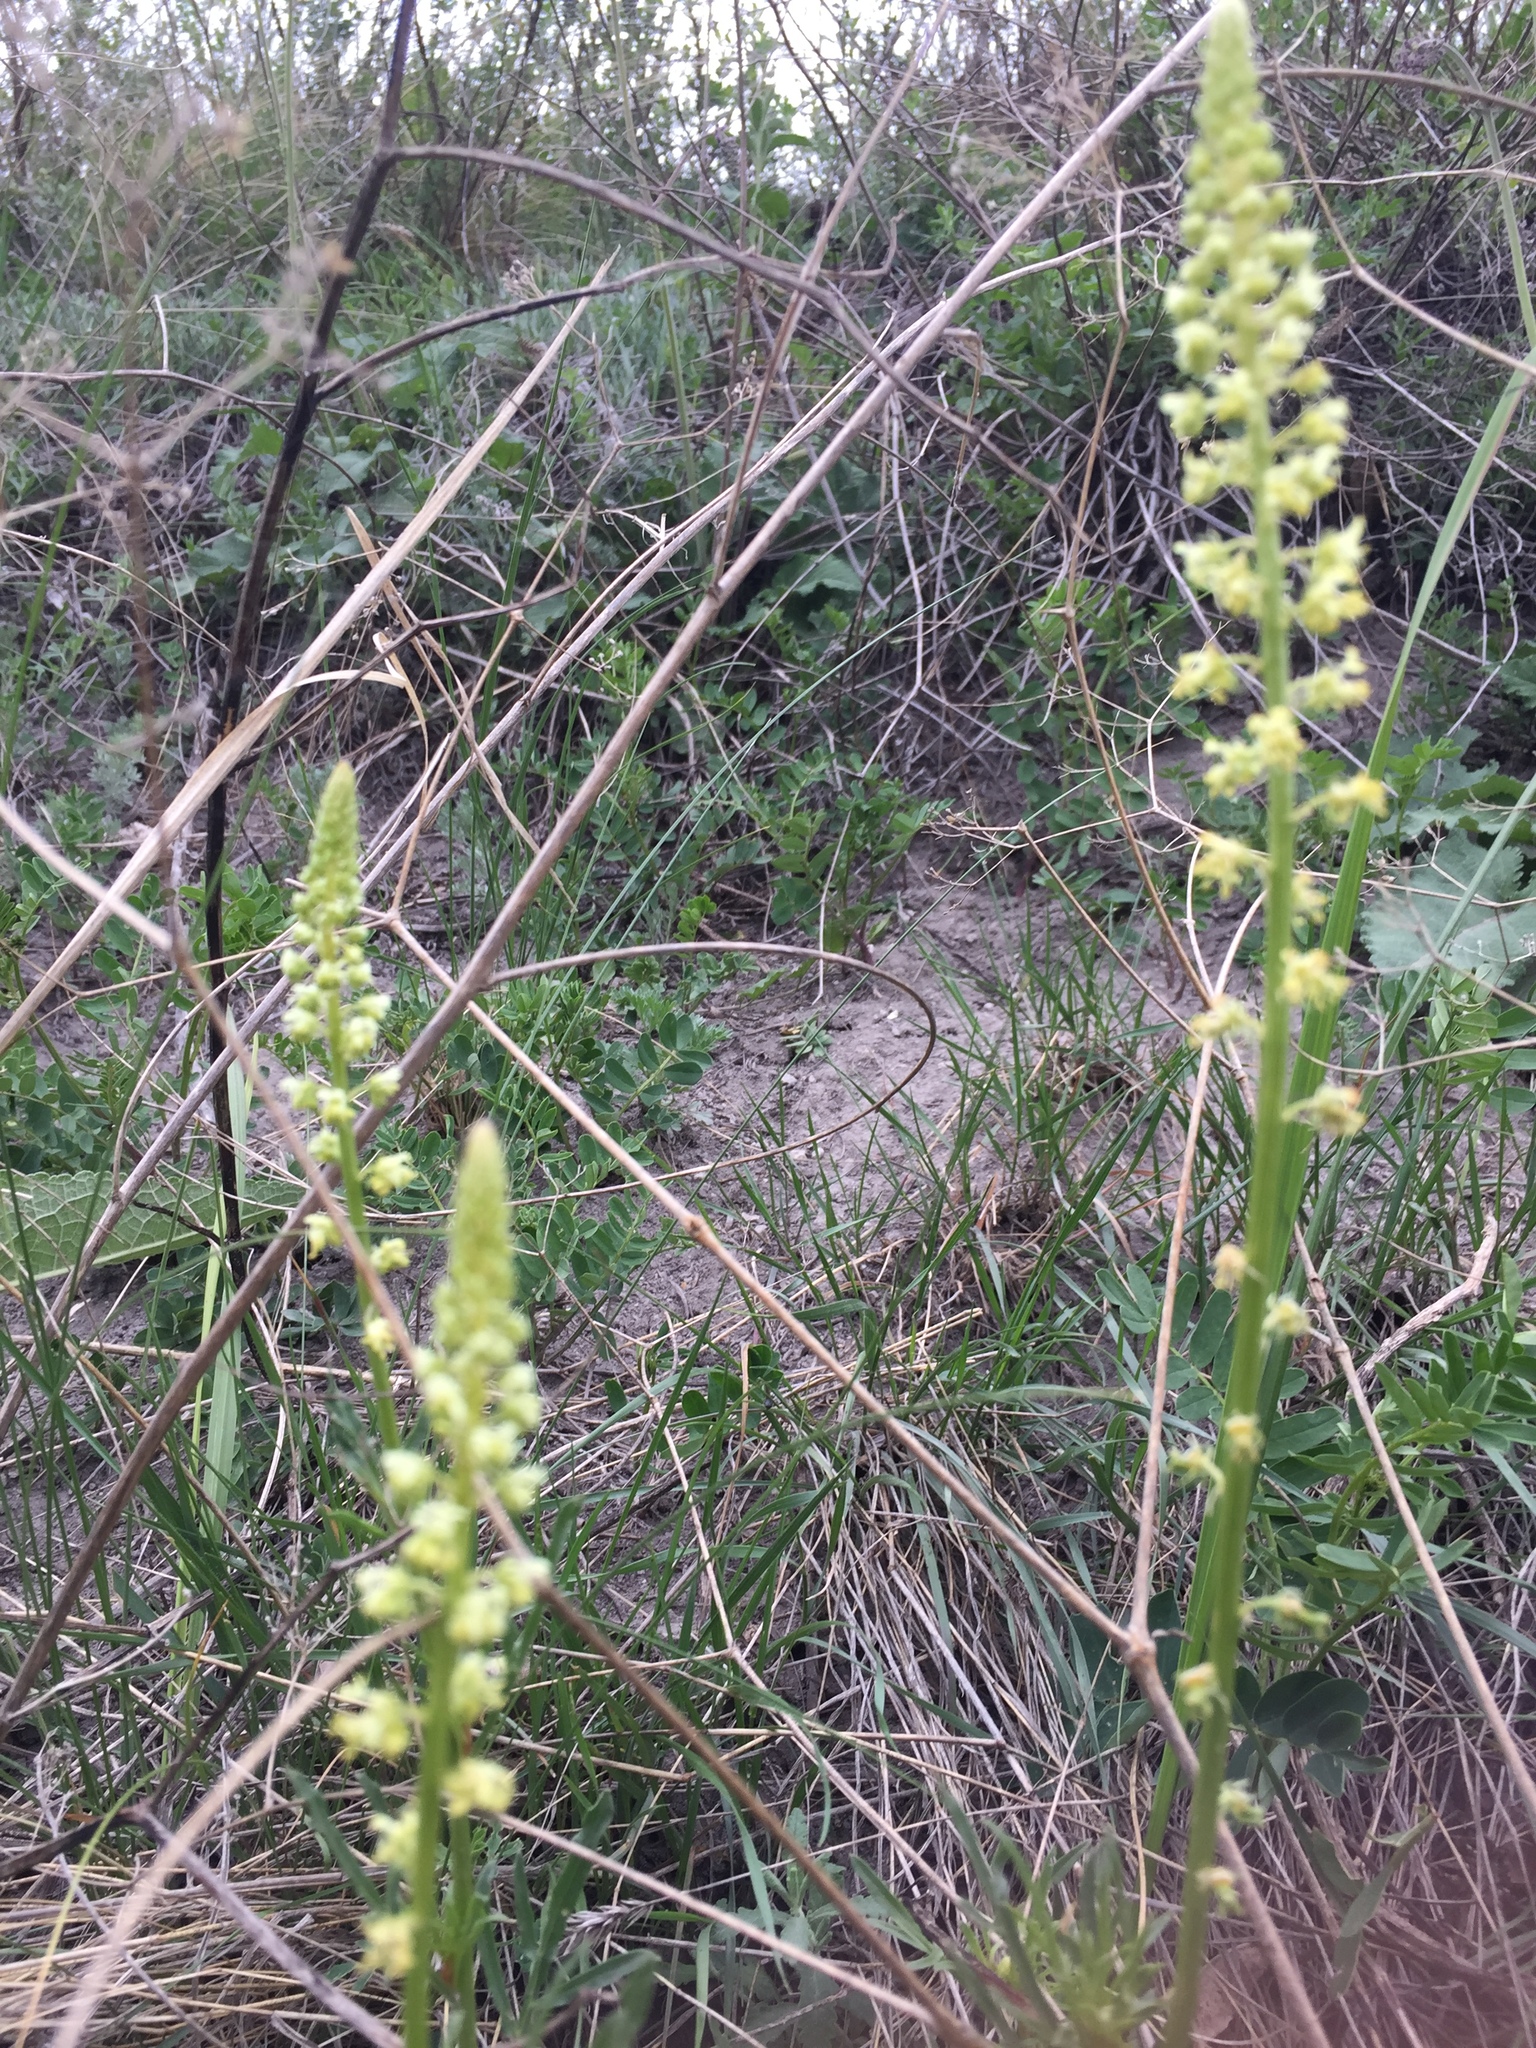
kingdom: Plantae
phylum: Tracheophyta
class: Magnoliopsida
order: Brassicales
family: Resedaceae
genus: Reseda
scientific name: Reseda lutea
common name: Wild mignonette
